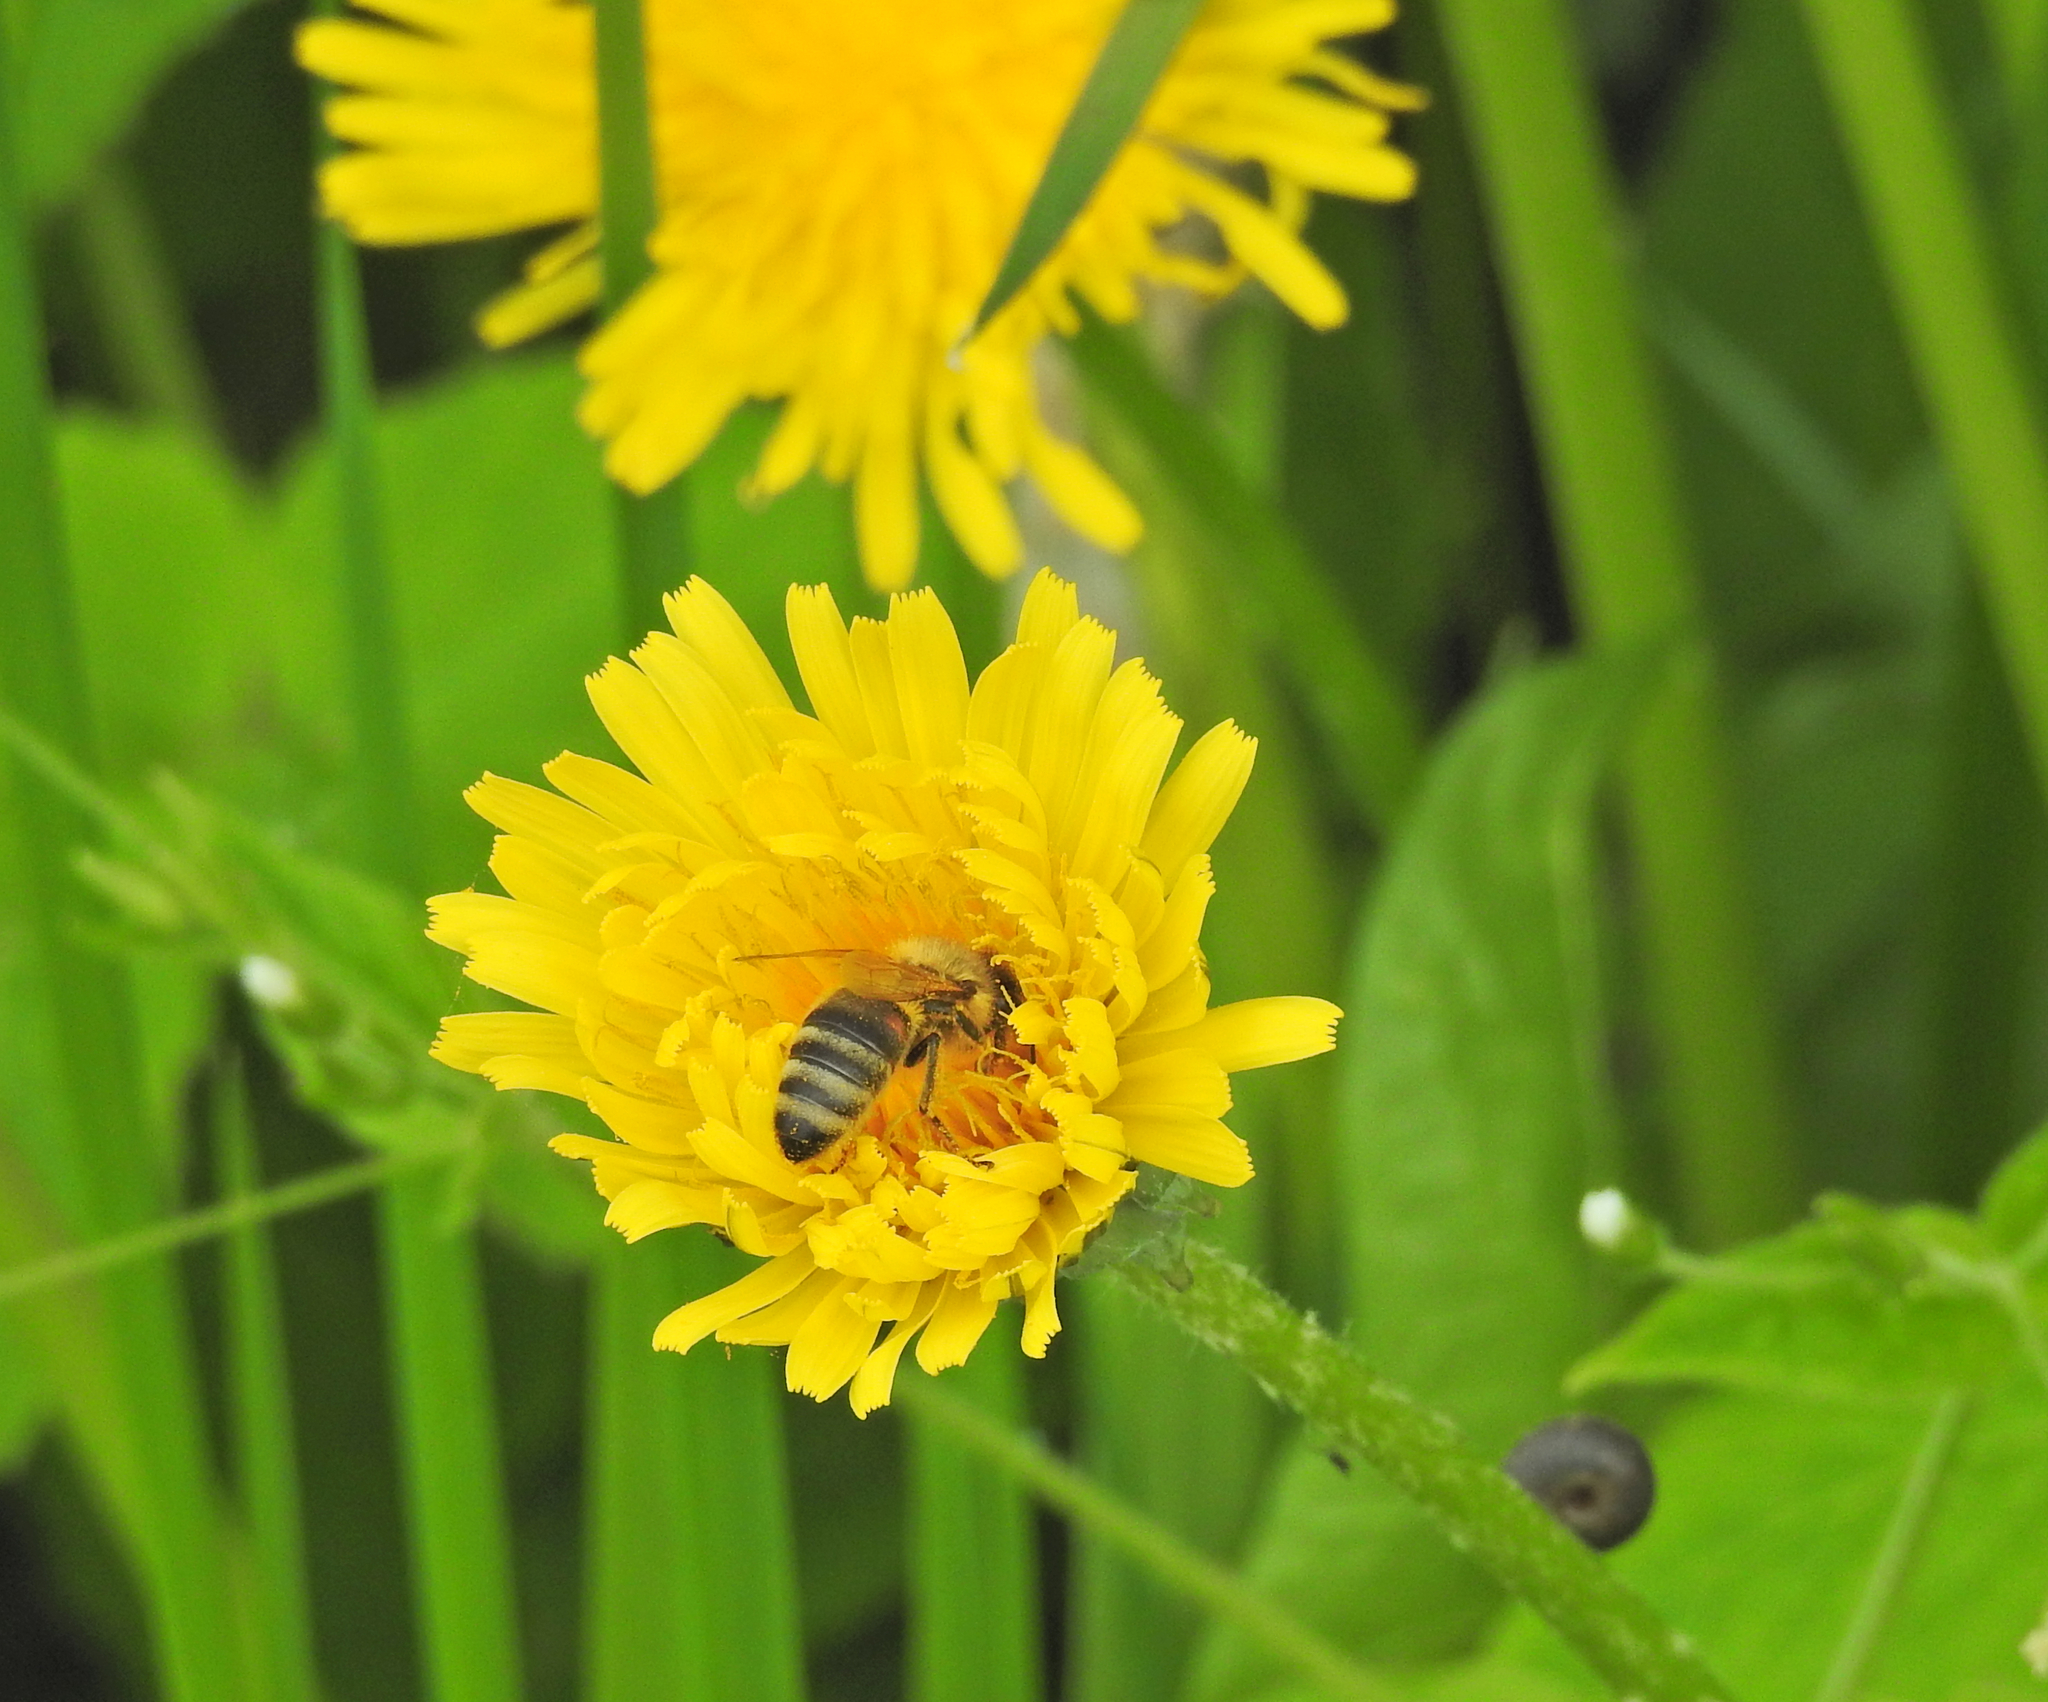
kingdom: Animalia
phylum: Arthropoda
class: Insecta
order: Hymenoptera
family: Apidae
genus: Apis
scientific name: Apis mellifera
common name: Honey bee
